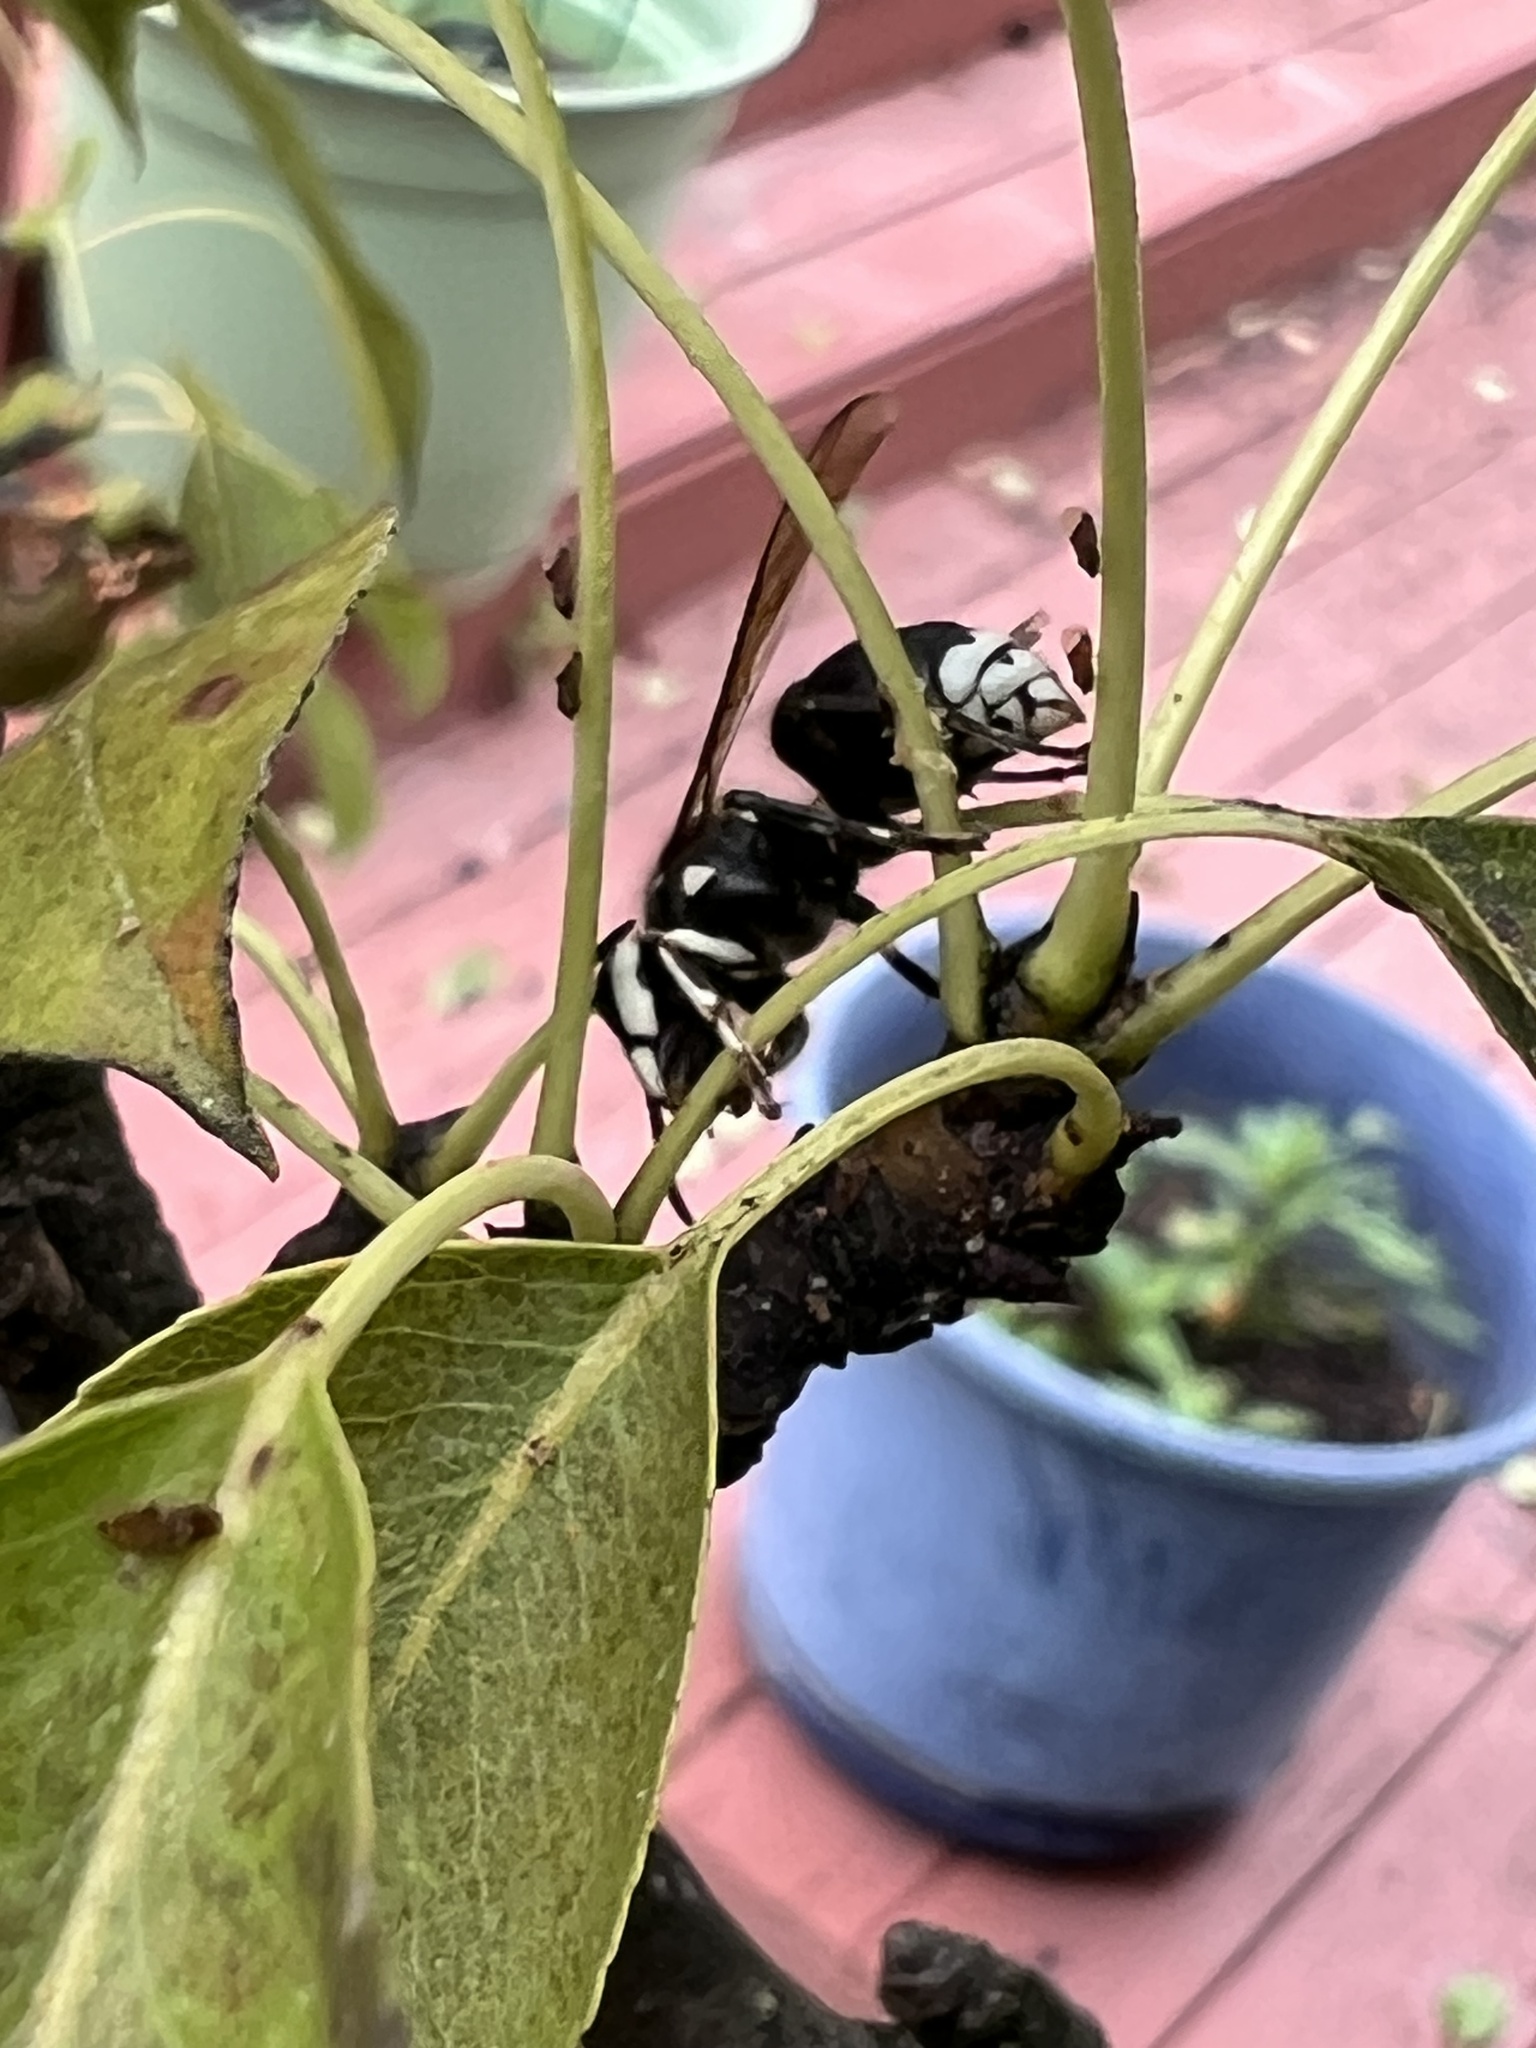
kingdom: Animalia
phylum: Arthropoda
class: Insecta
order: Hymenoptera
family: Vespidae
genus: Dolichovespula
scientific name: Dolichovespula maculata
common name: Bald-faced hornet
